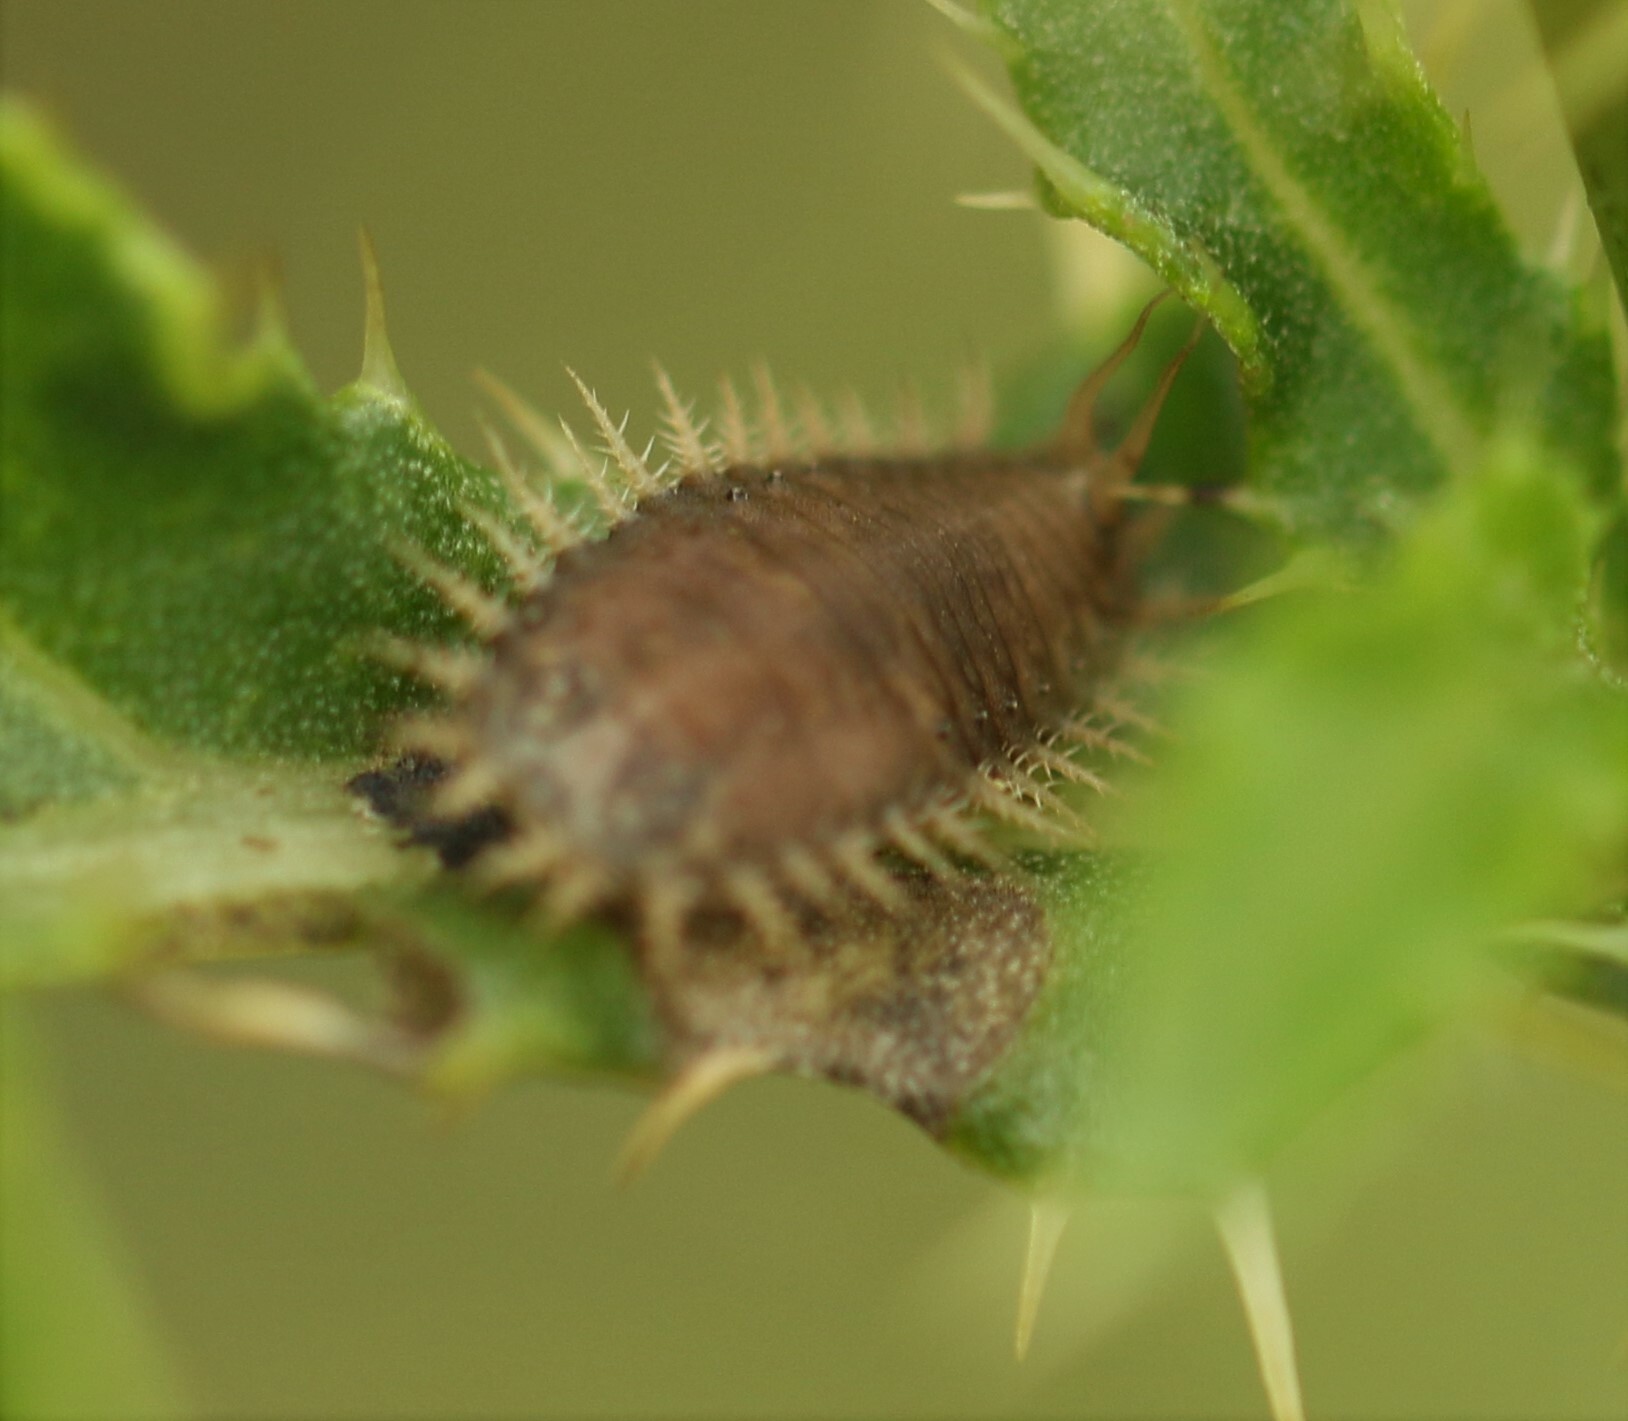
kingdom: Animalia
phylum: Arthropoda
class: Insecta
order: Coleoptera
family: Chrysomelidae
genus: Cassida
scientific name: Cassida rubiginosa
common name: Thistle tortoise beetle
